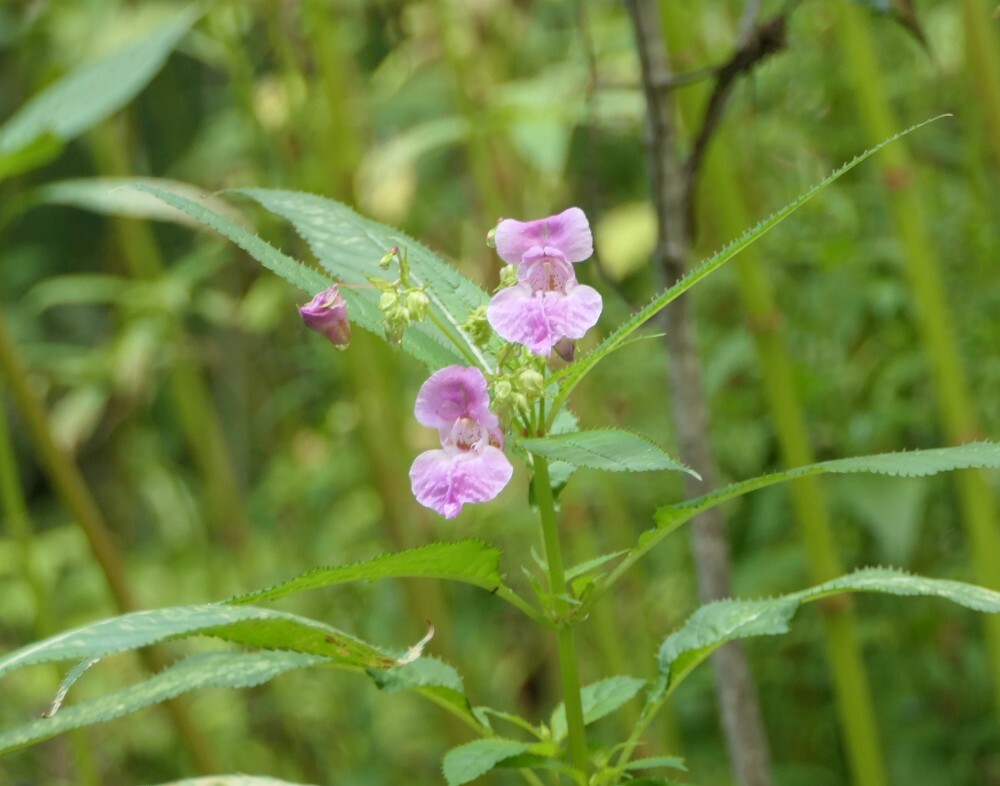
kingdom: Plantae
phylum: Tracheophyta
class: Magnoliopsida
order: Ericales
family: Balsaminaceae
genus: Impatiens
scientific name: Impatiens glandulifera
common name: Himalayan balsam
